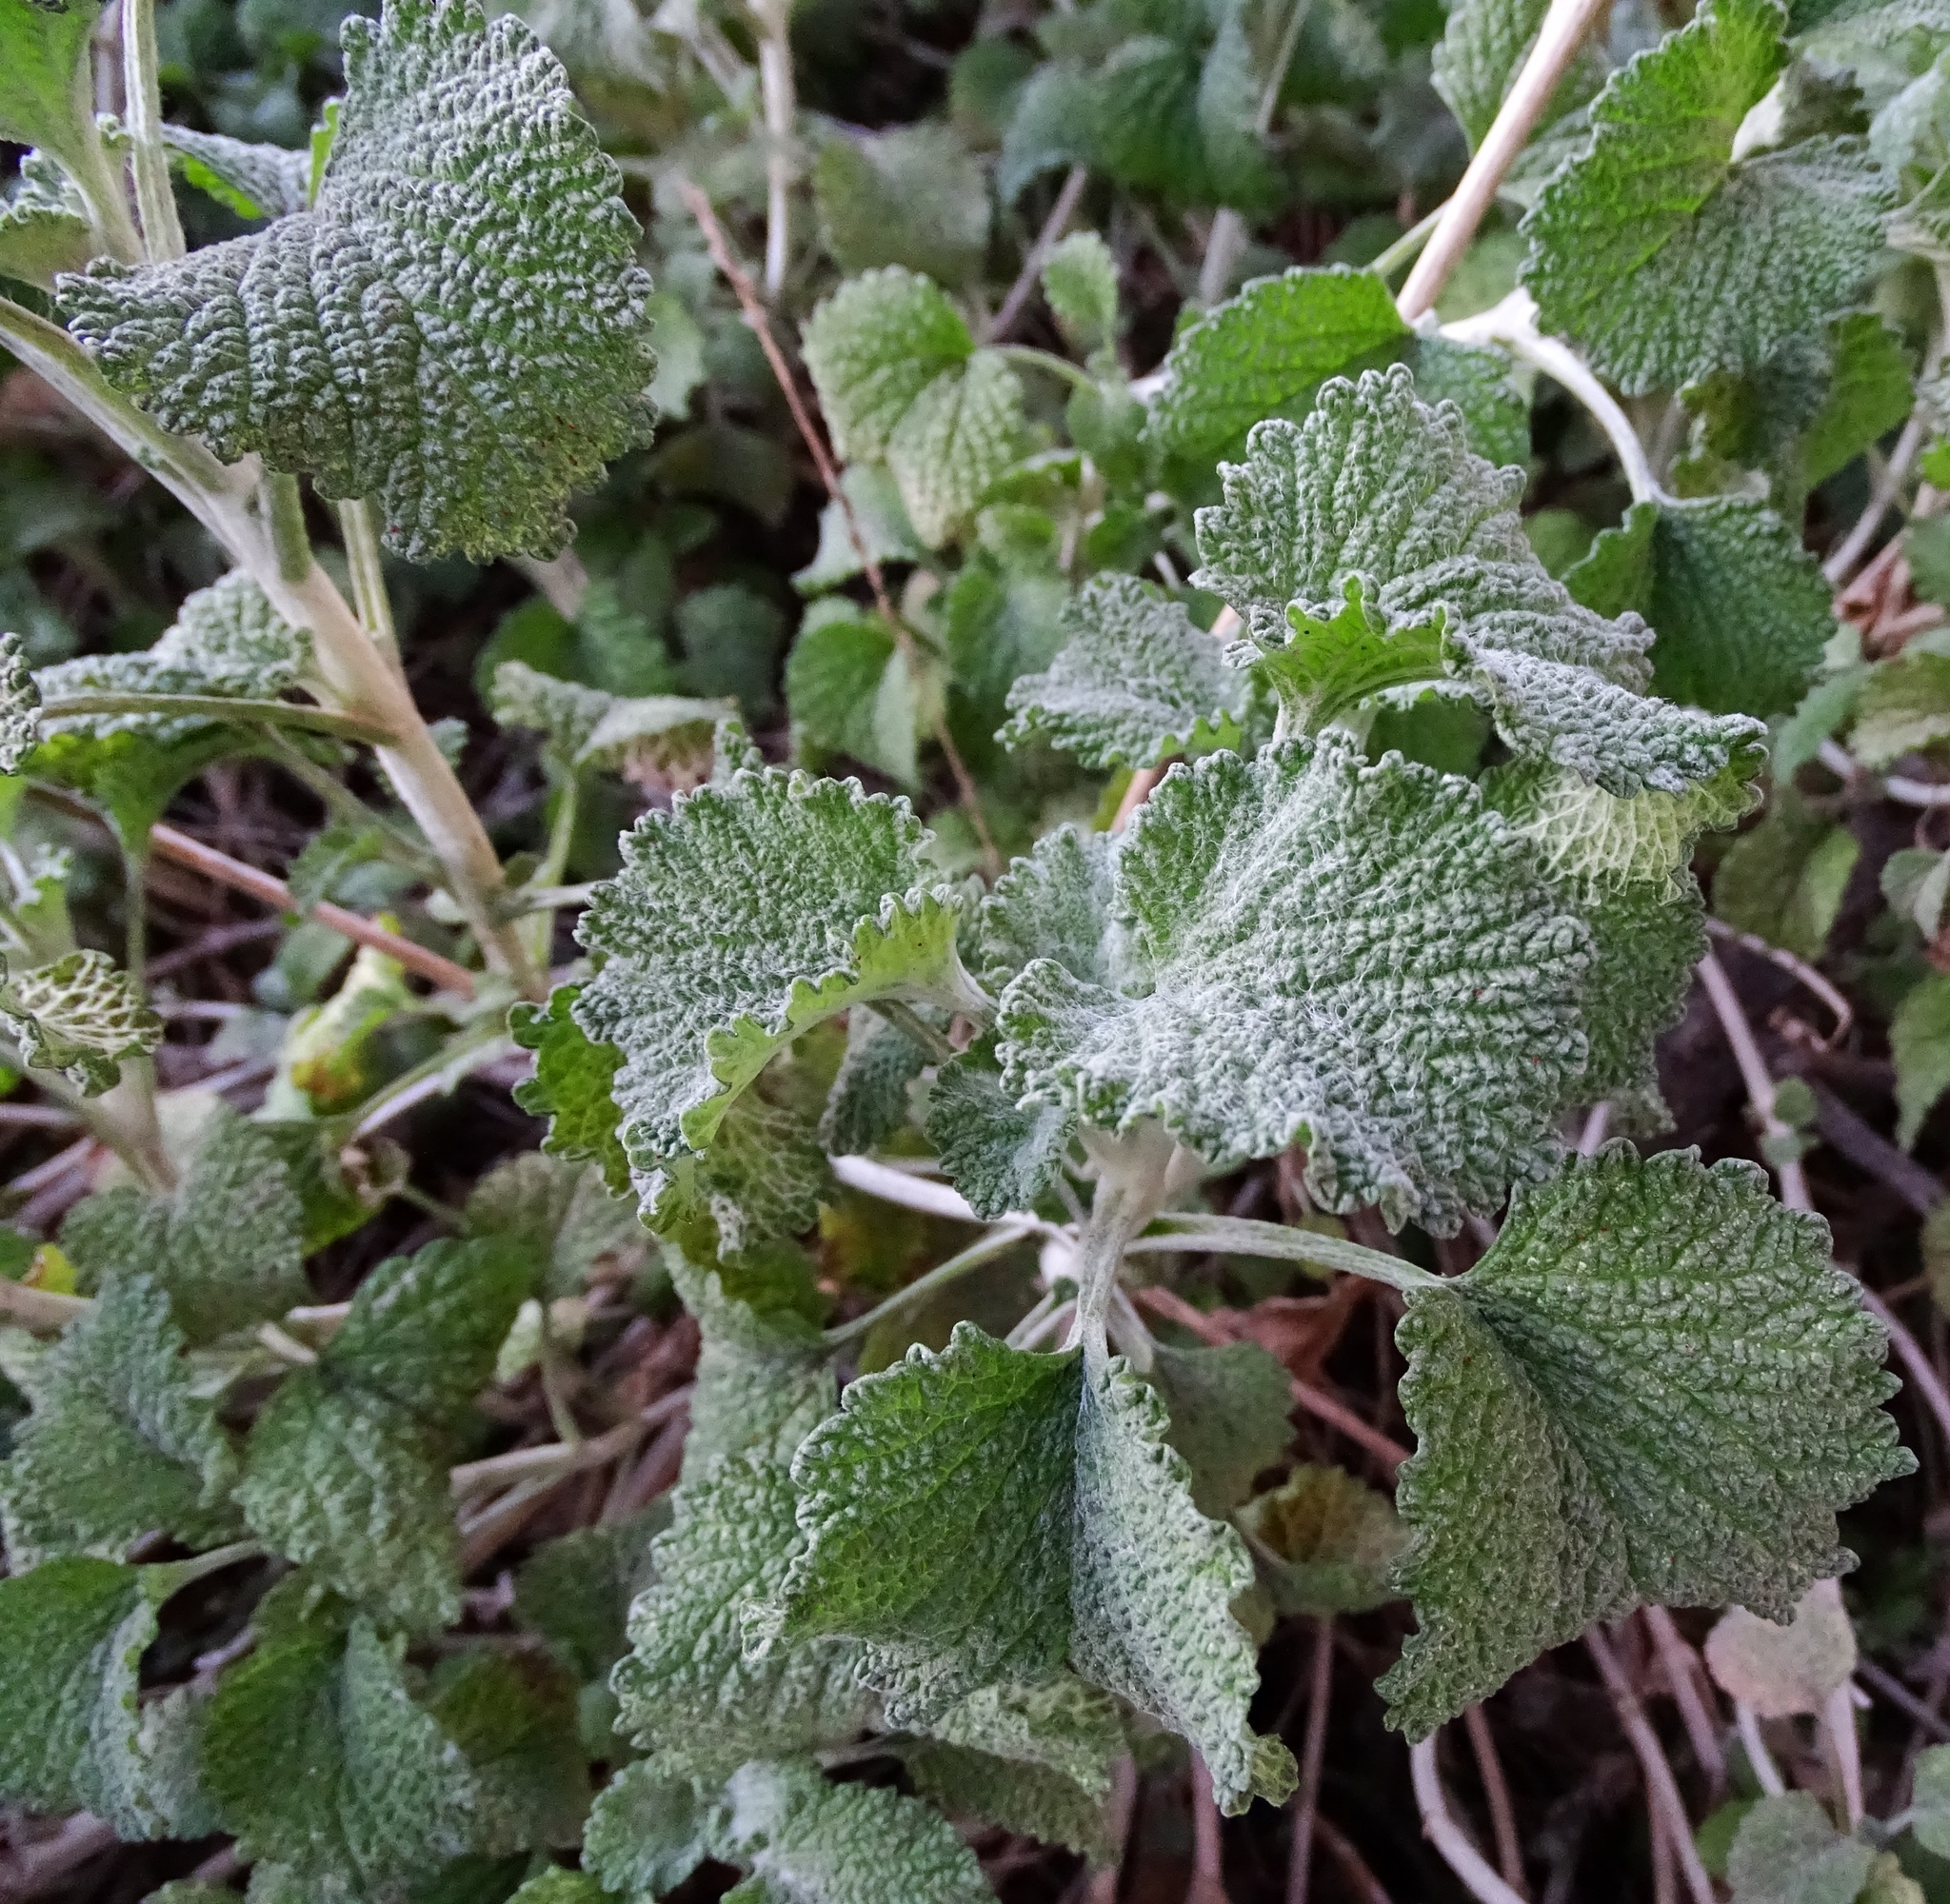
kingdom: Plantae
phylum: Tracheophyta
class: Magnoliopsida
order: Lamiales
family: Lamiaceae
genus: Marrubium
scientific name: Marrubium vulgare
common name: Horehound
